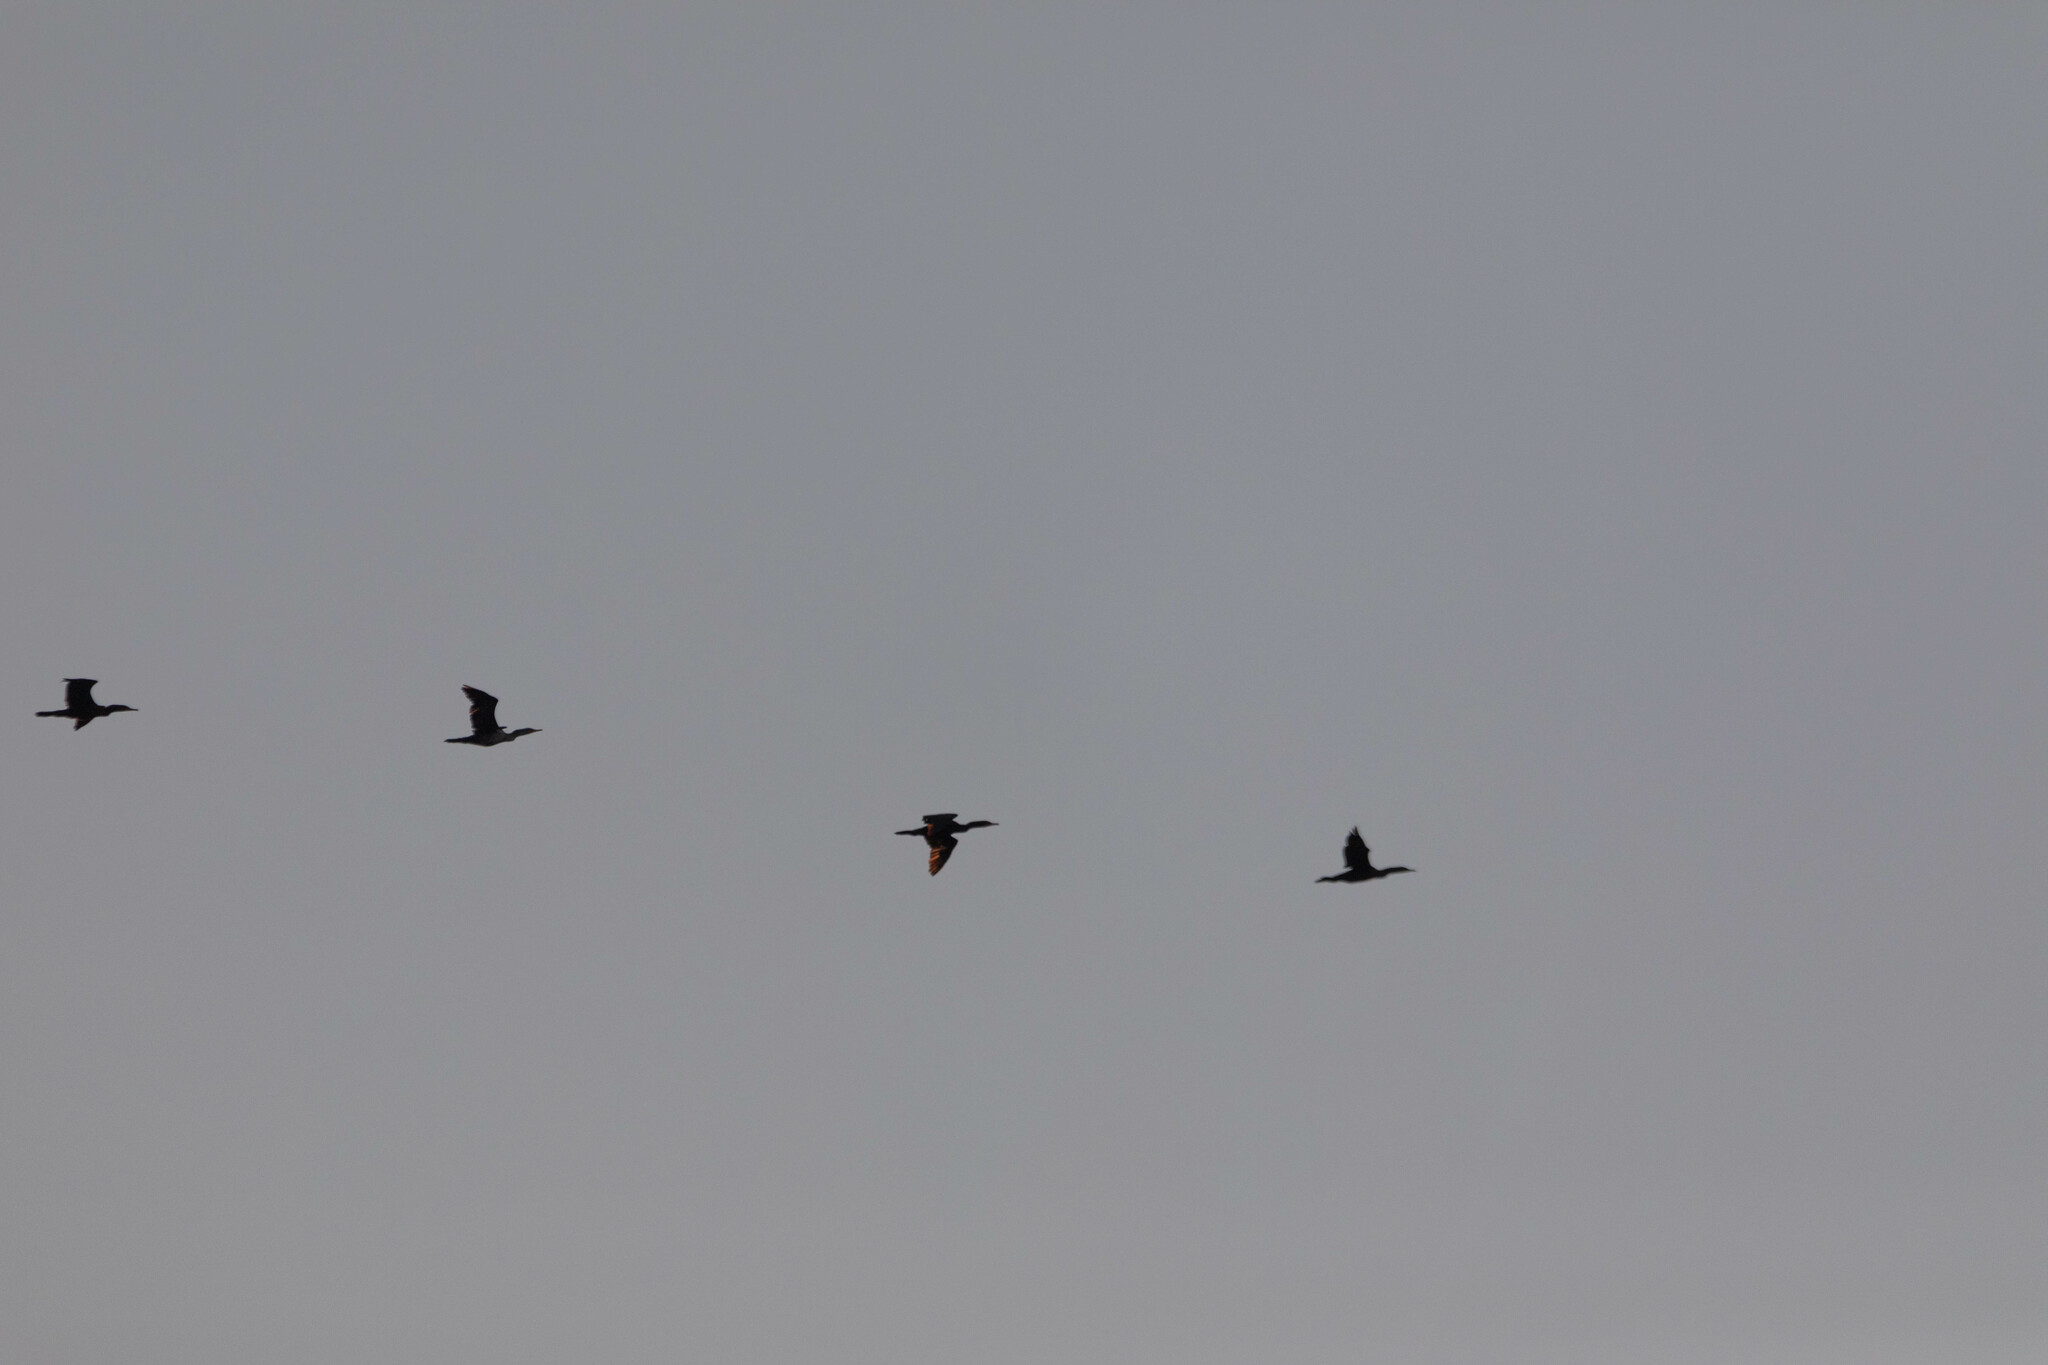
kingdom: Animalia
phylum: Chordata
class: Aves
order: Suliformes
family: Phalacrocoracidae
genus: Phalacrocorax
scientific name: Phalacrocorax auritus
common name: Double-crested cormorant
